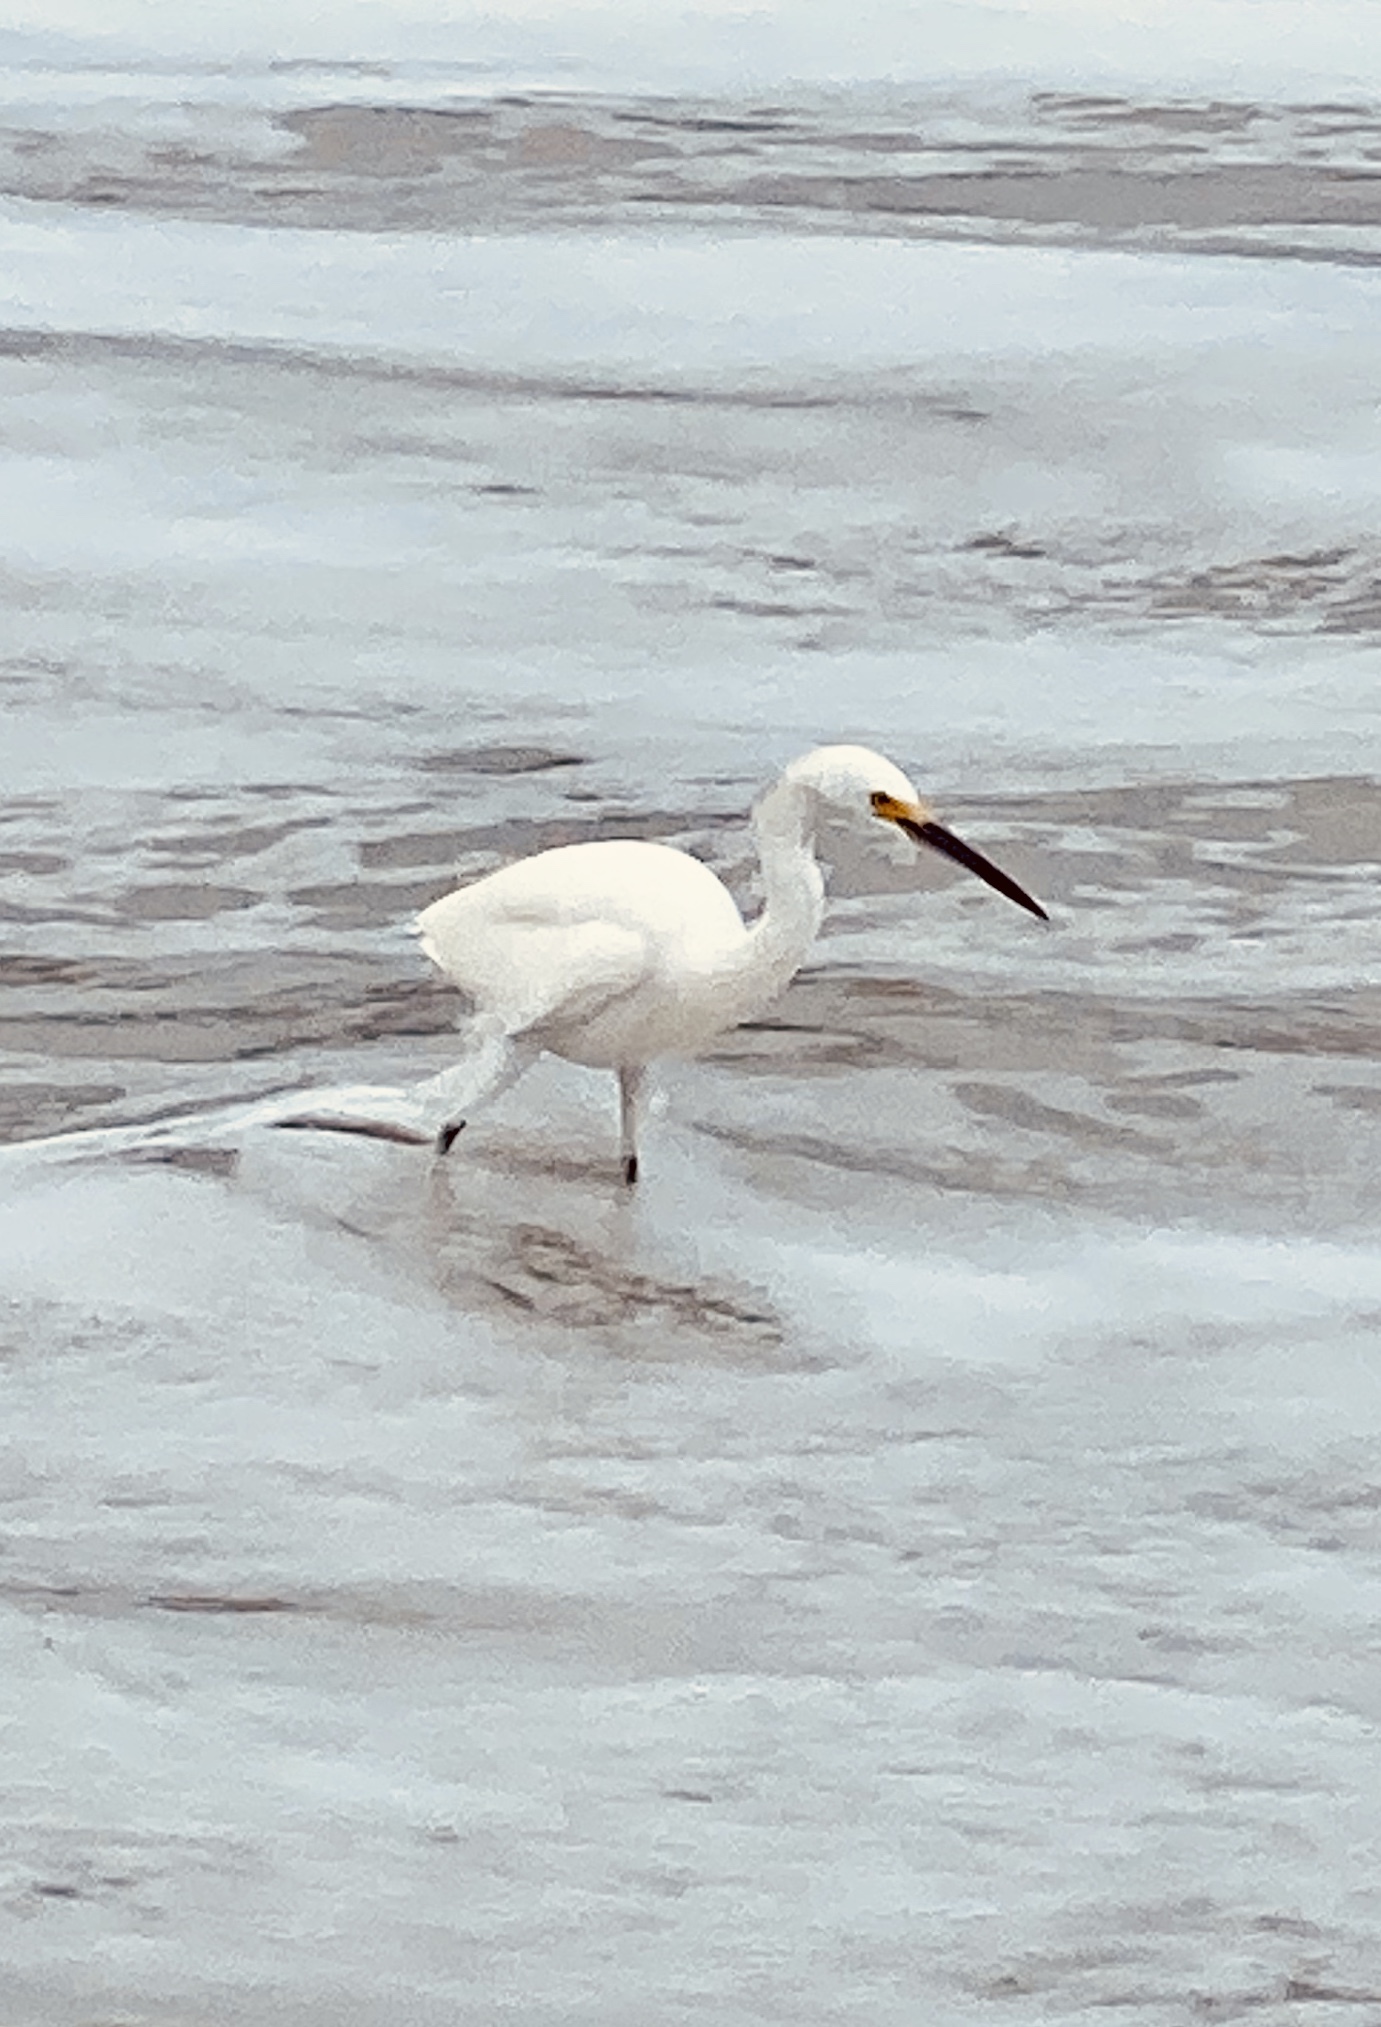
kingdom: Animalia
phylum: Chordata
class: Aves
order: Pelecaniformes
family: Ardeidae
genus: Egretta
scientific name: Egretta thula
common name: Snowy egret
